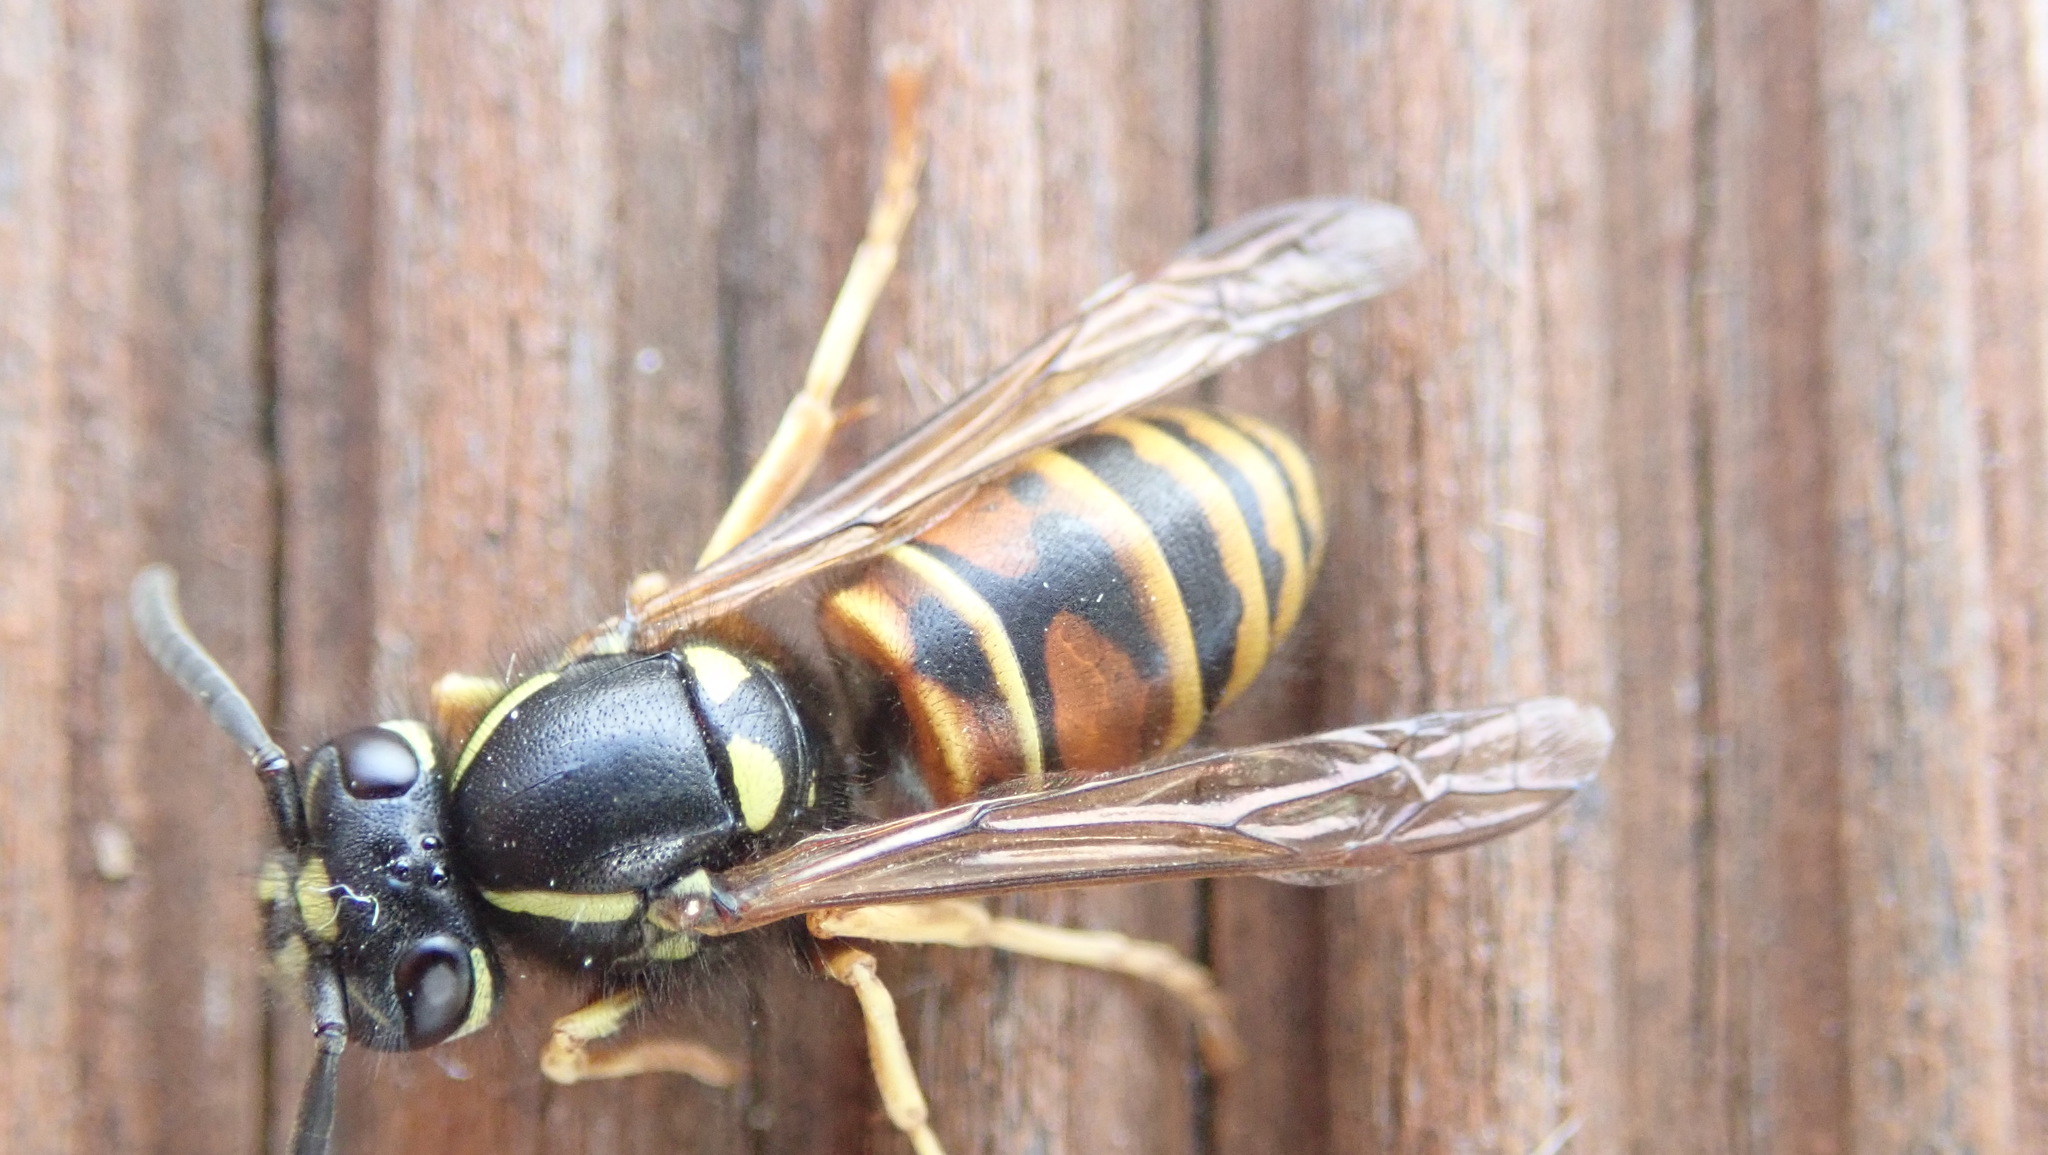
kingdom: Animalia
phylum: Arthropoda
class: Insecta
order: Hymenoptera
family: Vespidae
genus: Vespula
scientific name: Vespula rufa
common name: Red wasp
